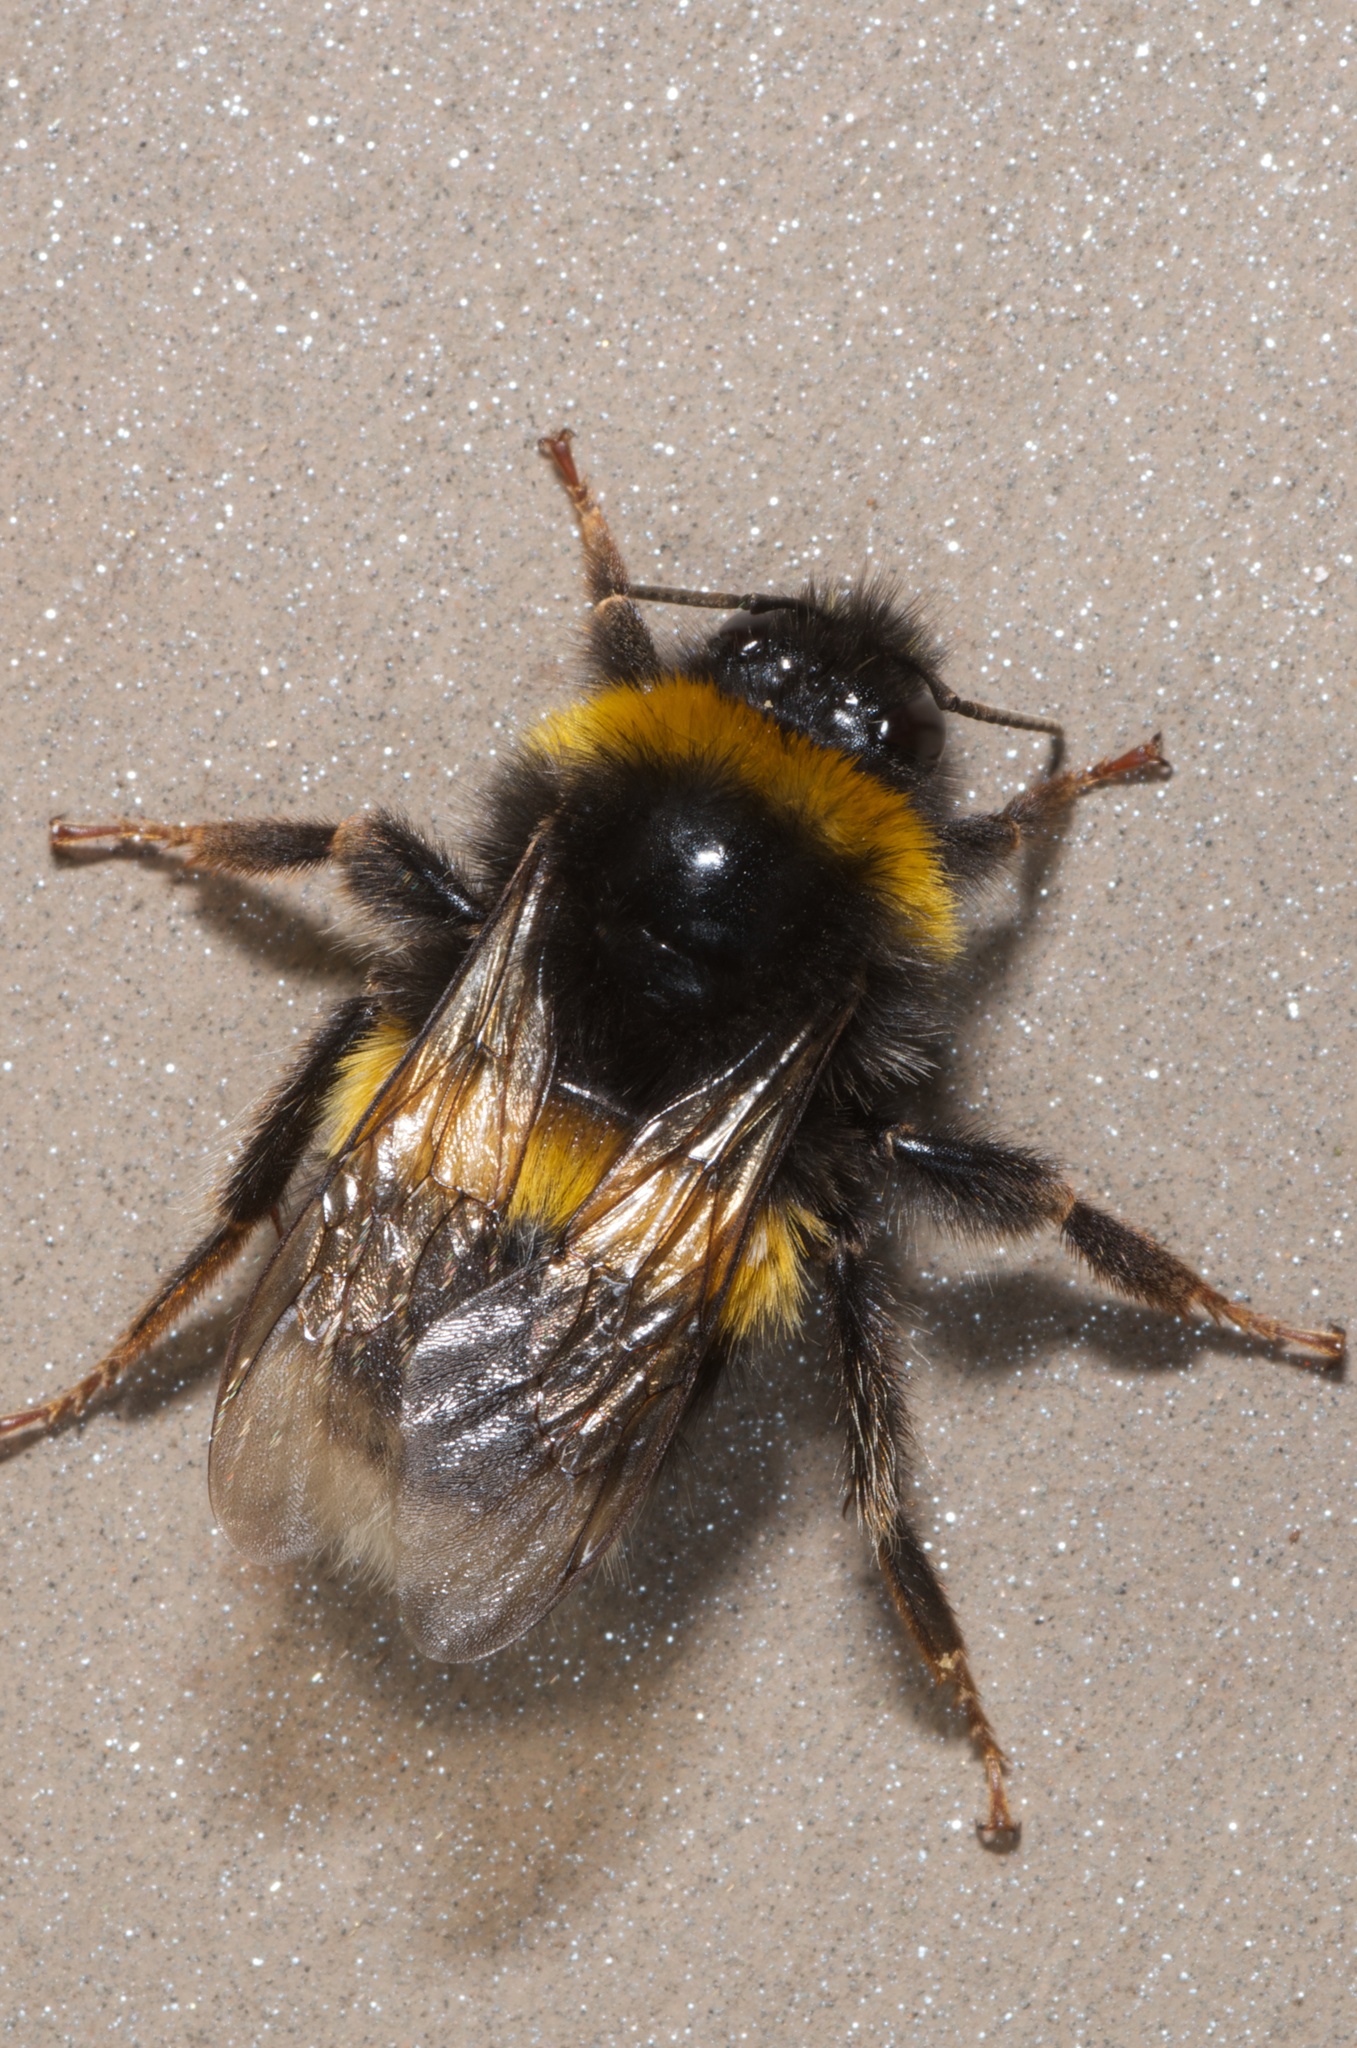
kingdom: Animalia
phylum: Arthropoda
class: Insecta
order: Hymenoptera
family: Apidae
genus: Bombus
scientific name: Bombus terrestris
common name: Buff-tailed bumblebee
